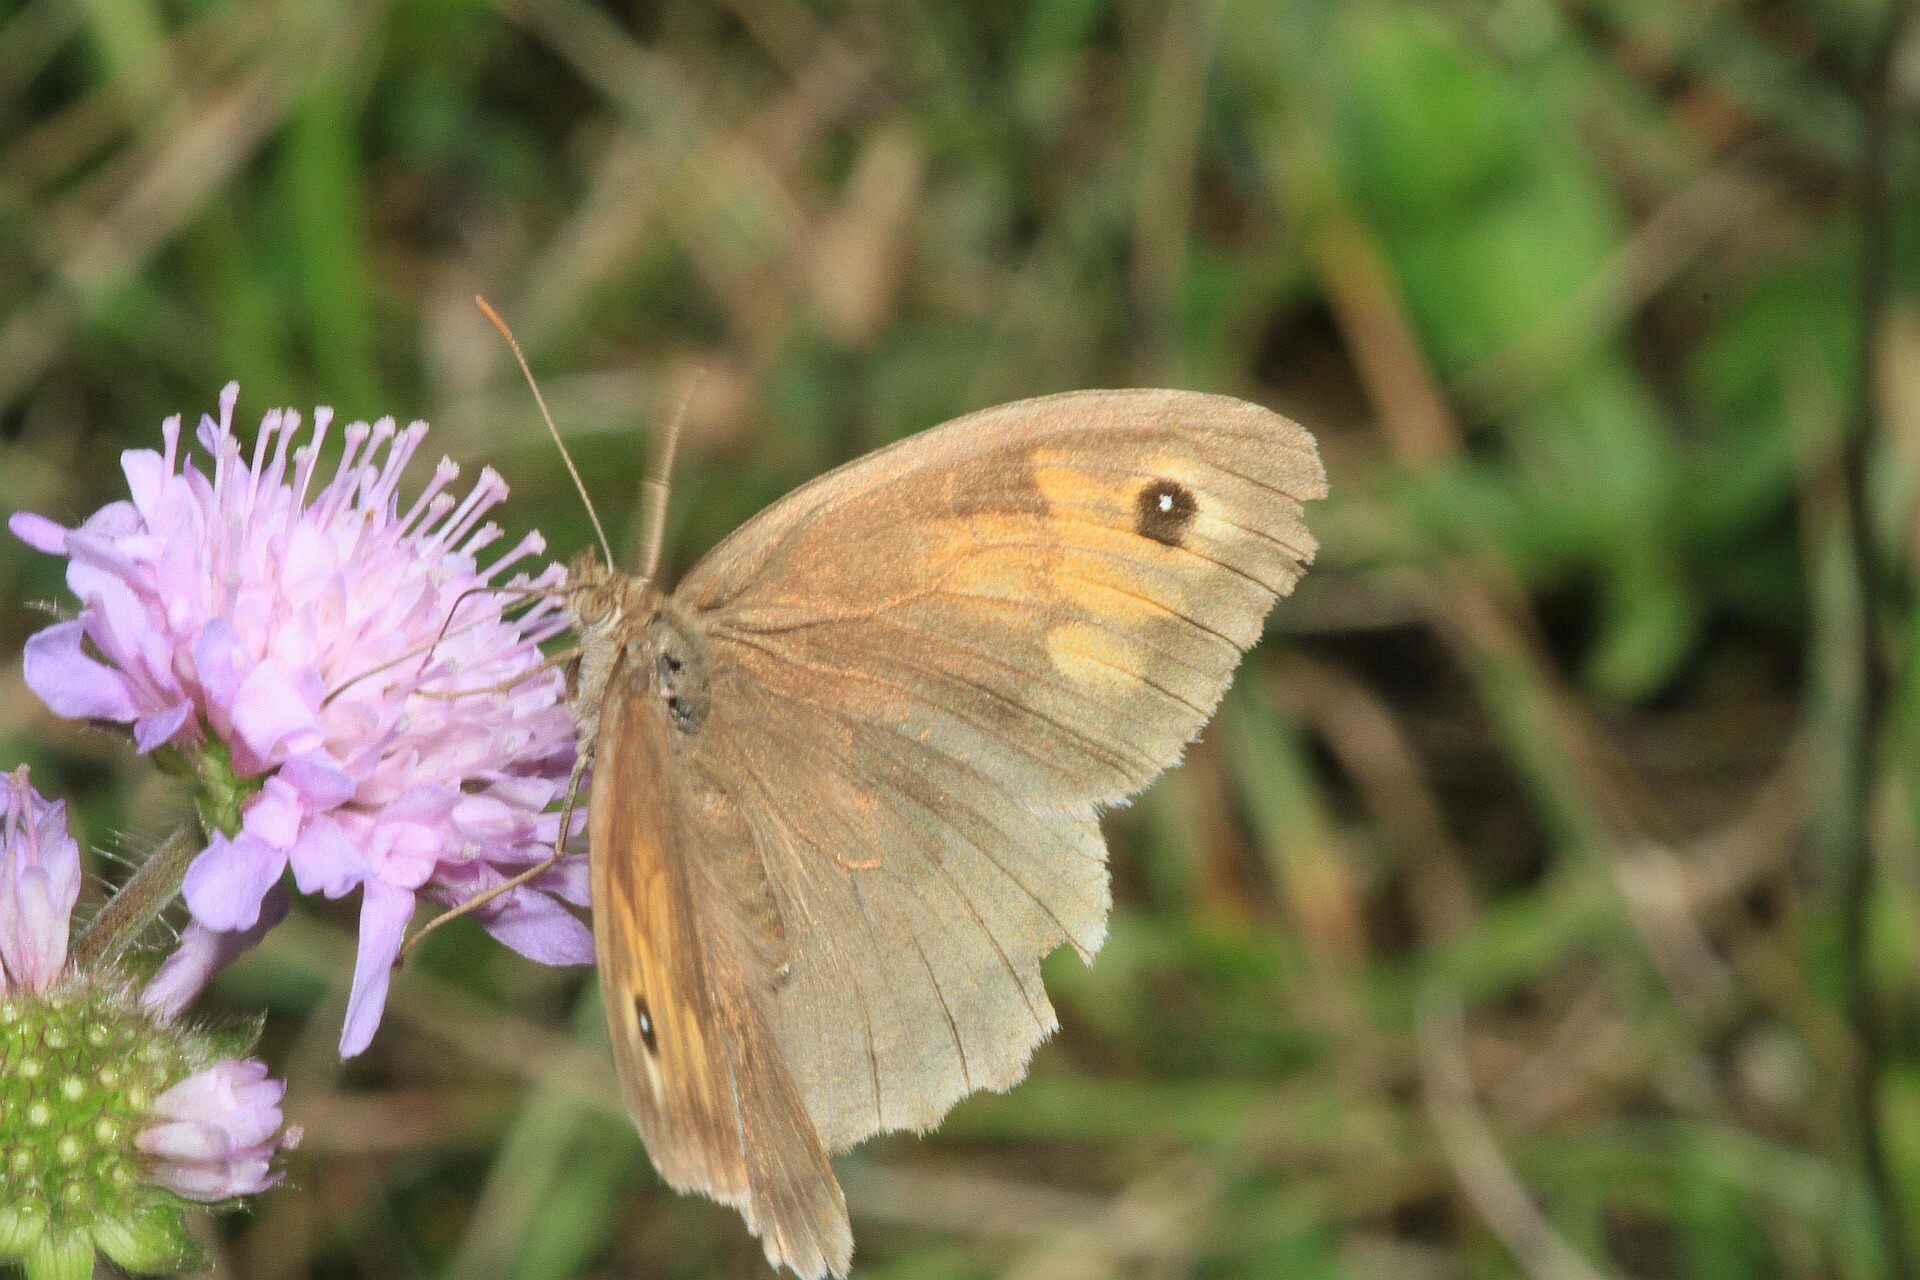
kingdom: Animalia
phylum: Arthropoda
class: Insecta
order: Lepidoptera
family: Nymphalidae
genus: Maniola
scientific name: Maniola jurtina
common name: Meadow brown
